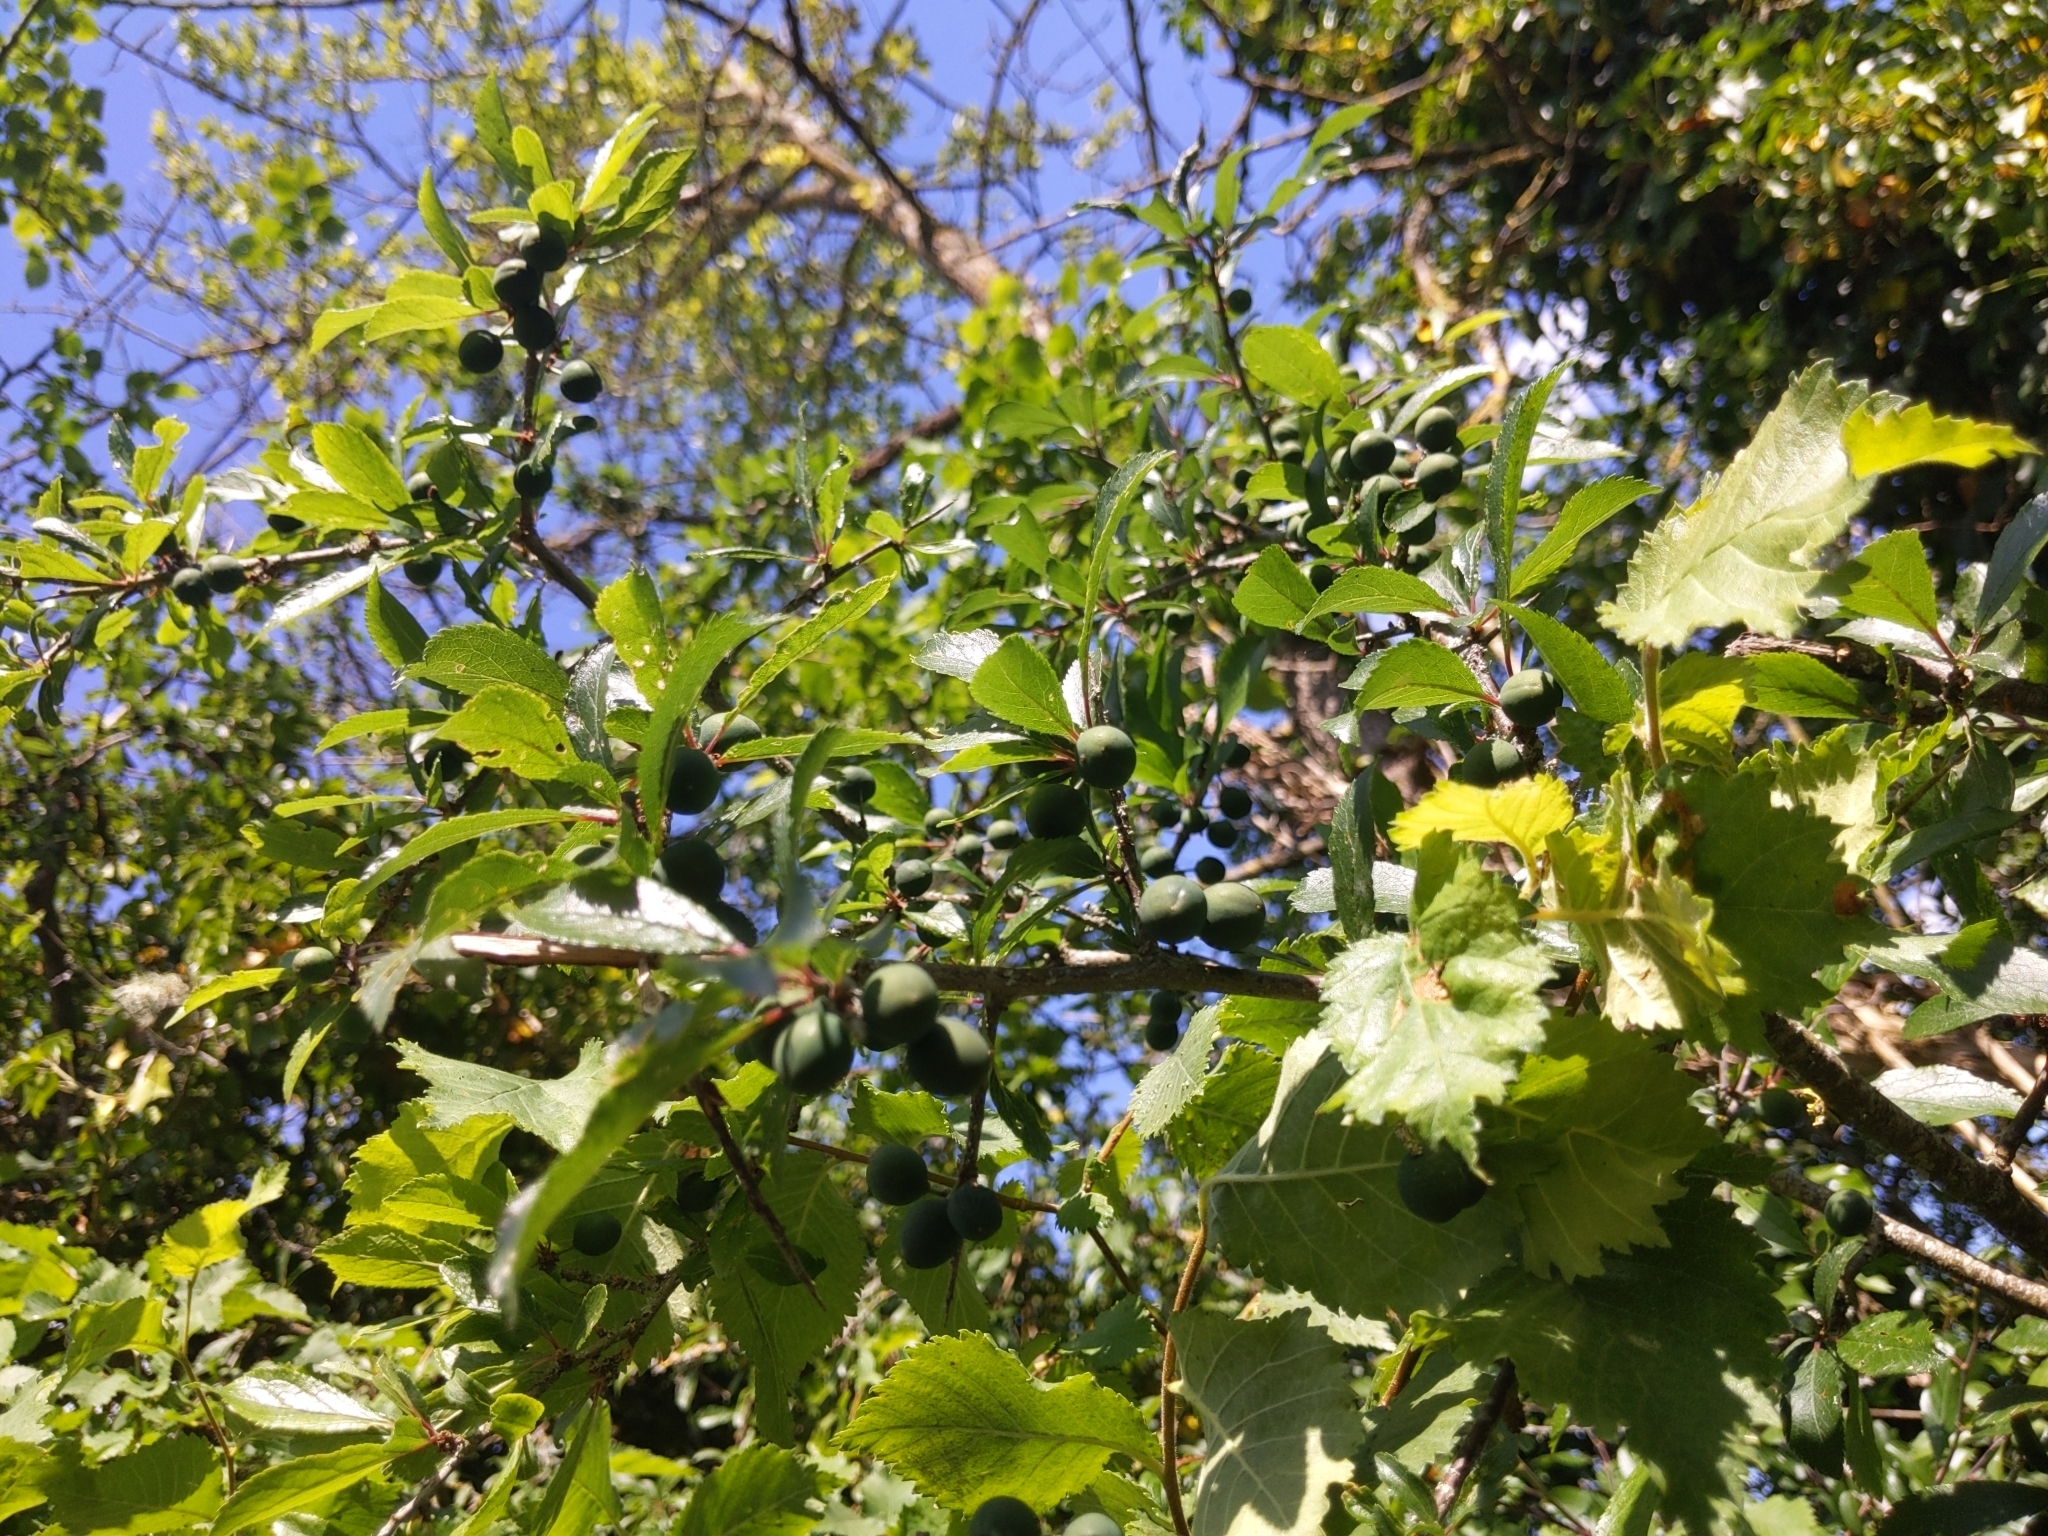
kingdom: Plantae
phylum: Tracheophyta
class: Magnoliopsida
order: Rosales
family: Rosaceae
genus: Prunus
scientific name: Prunus spinosa
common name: Blackthorn
